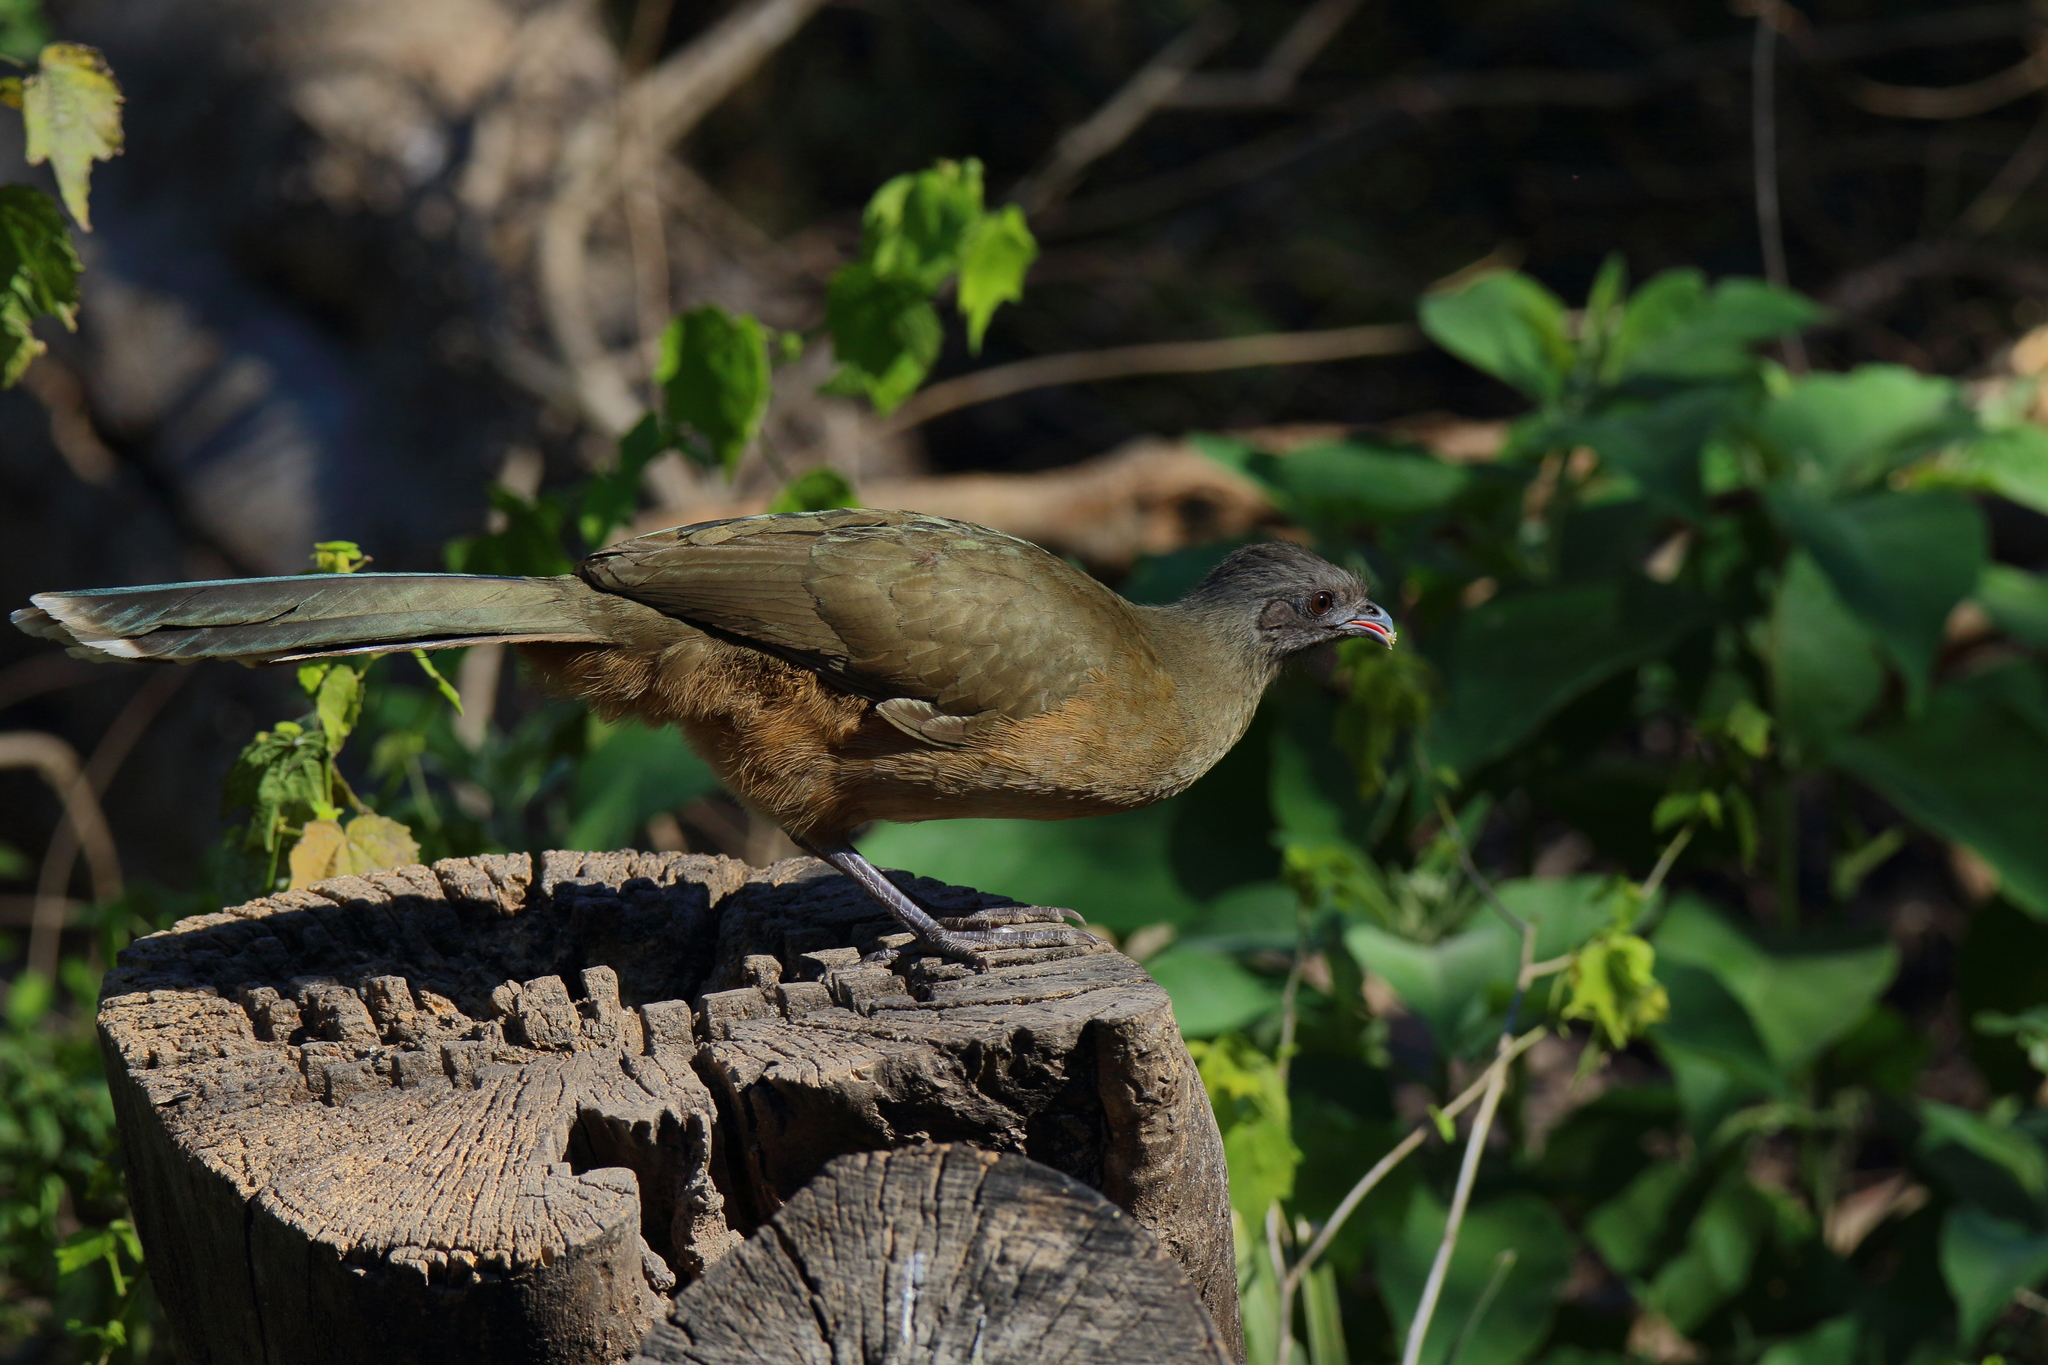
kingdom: Animalia
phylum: Chordata
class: Aves
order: Galliformes
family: Cracidae
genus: Ortalis
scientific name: Ortalis vetula
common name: Plain chachalaca
